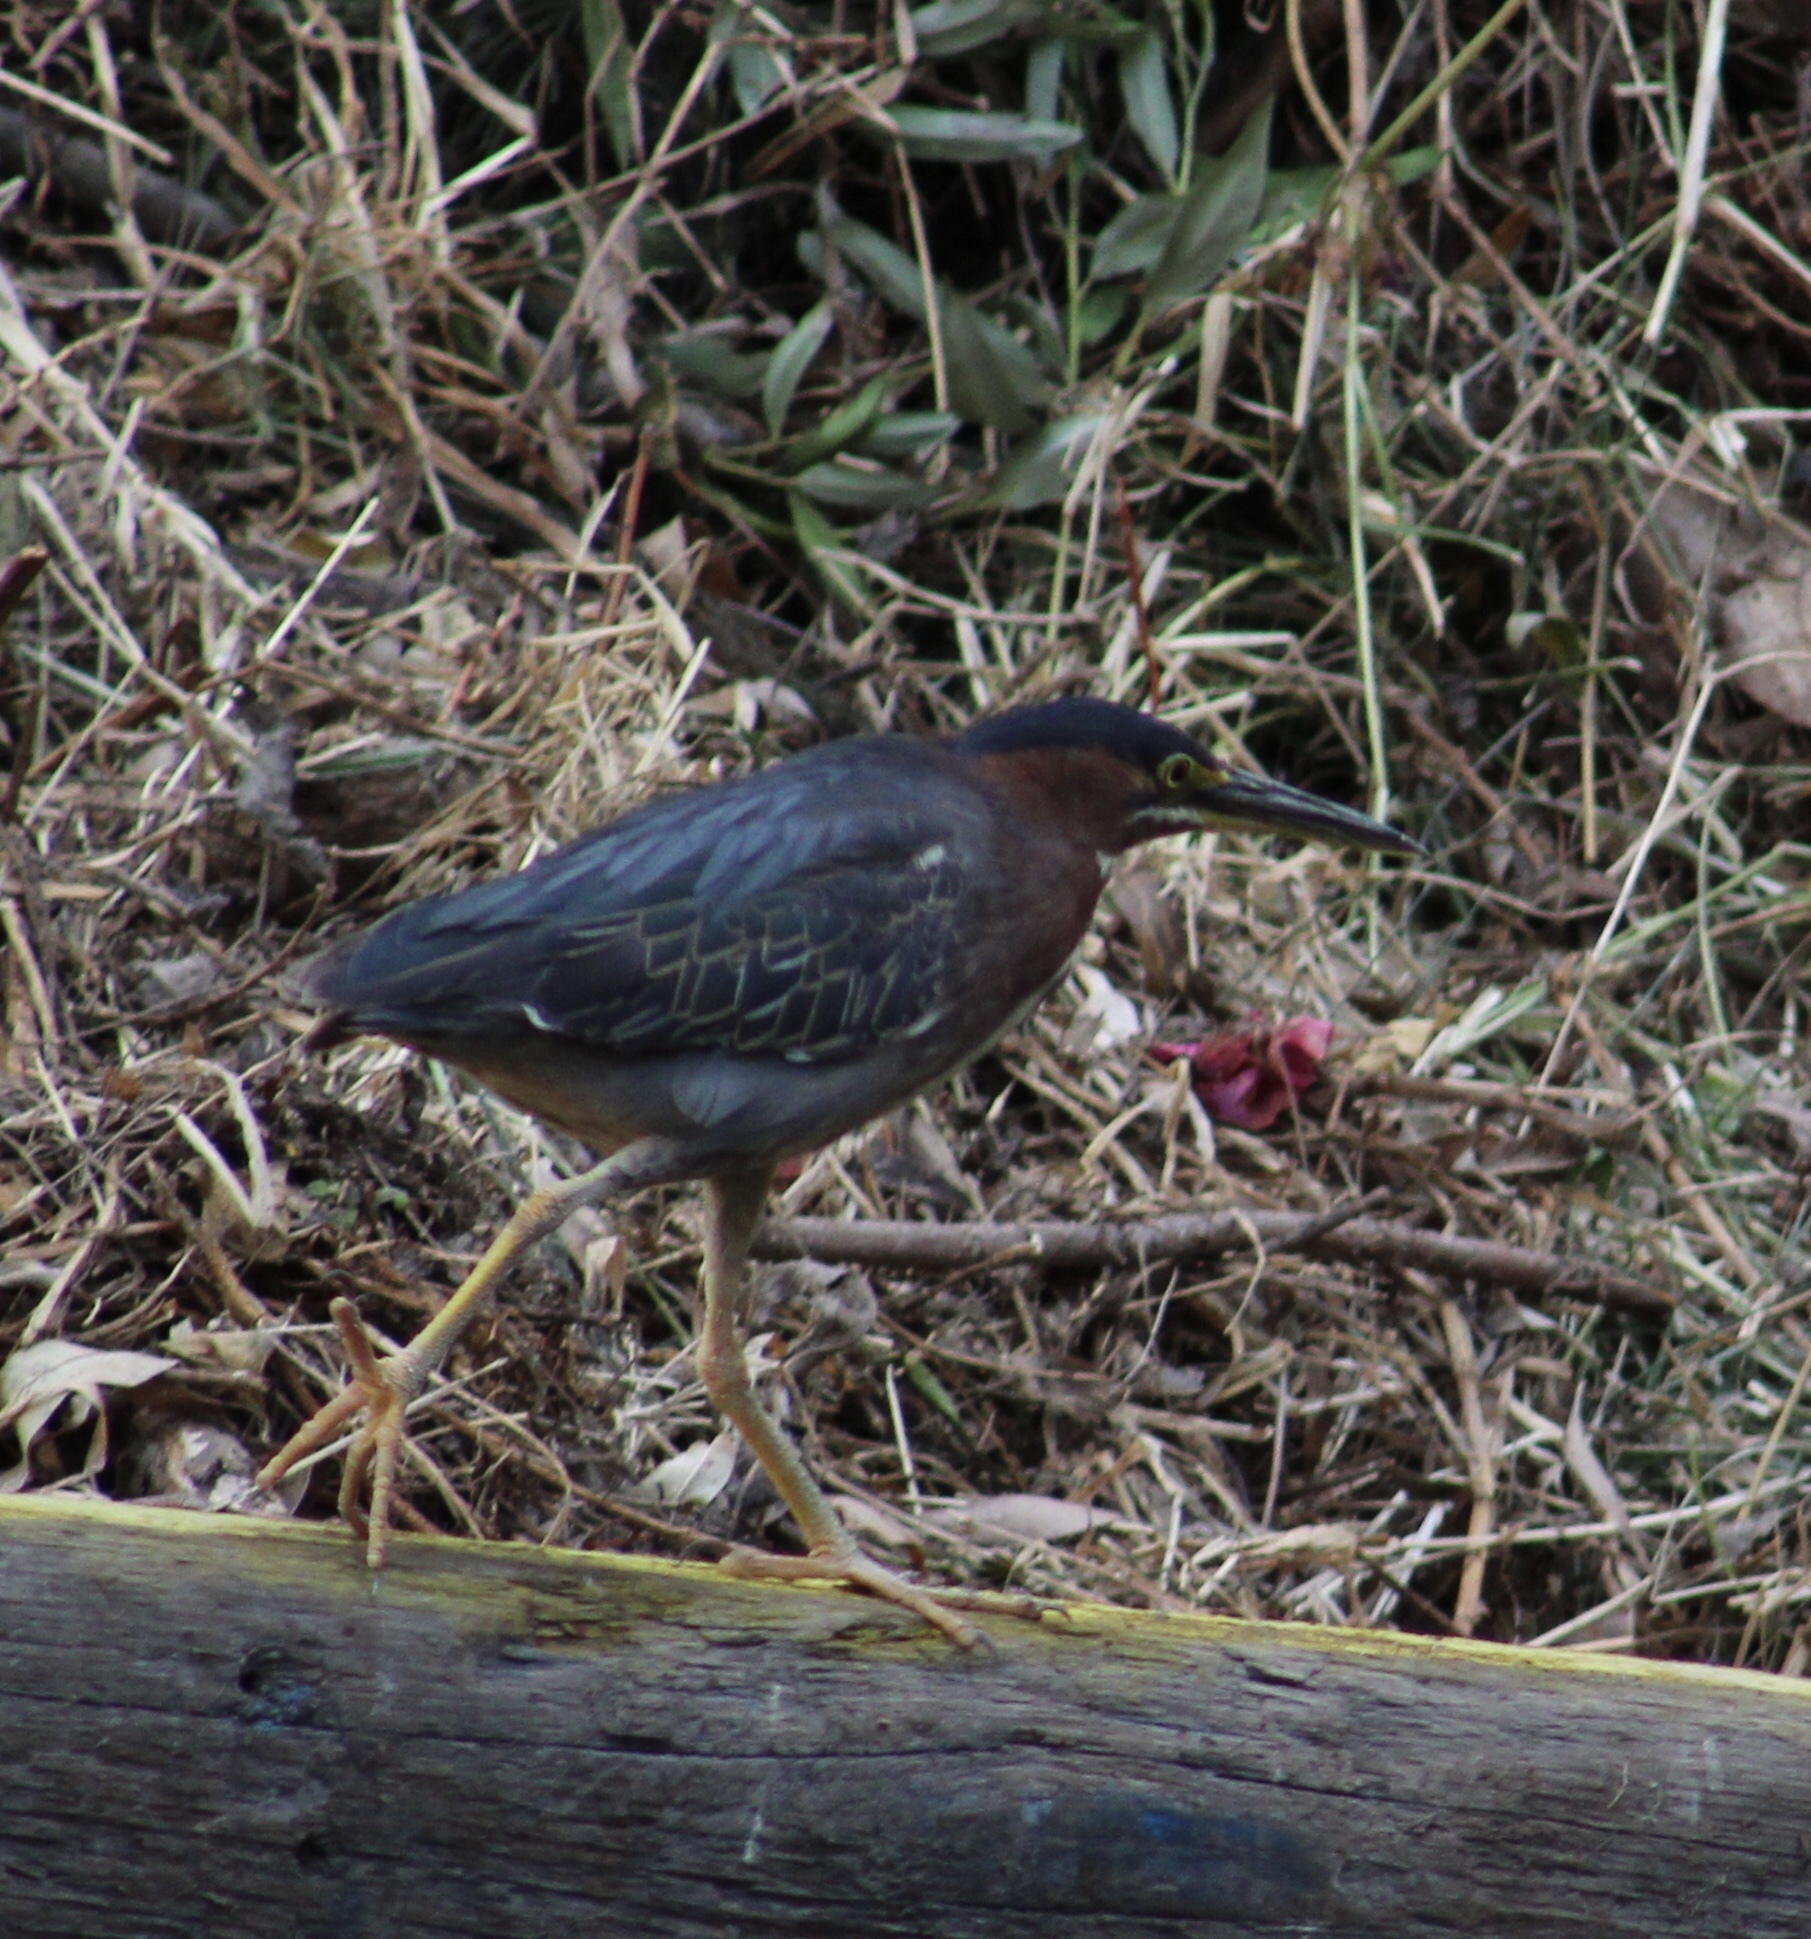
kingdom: Animalia
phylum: Chordata
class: Aves
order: Pelecaniformes
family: Ardeidae
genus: Butorides
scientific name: Butorides virescens
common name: Green heron
